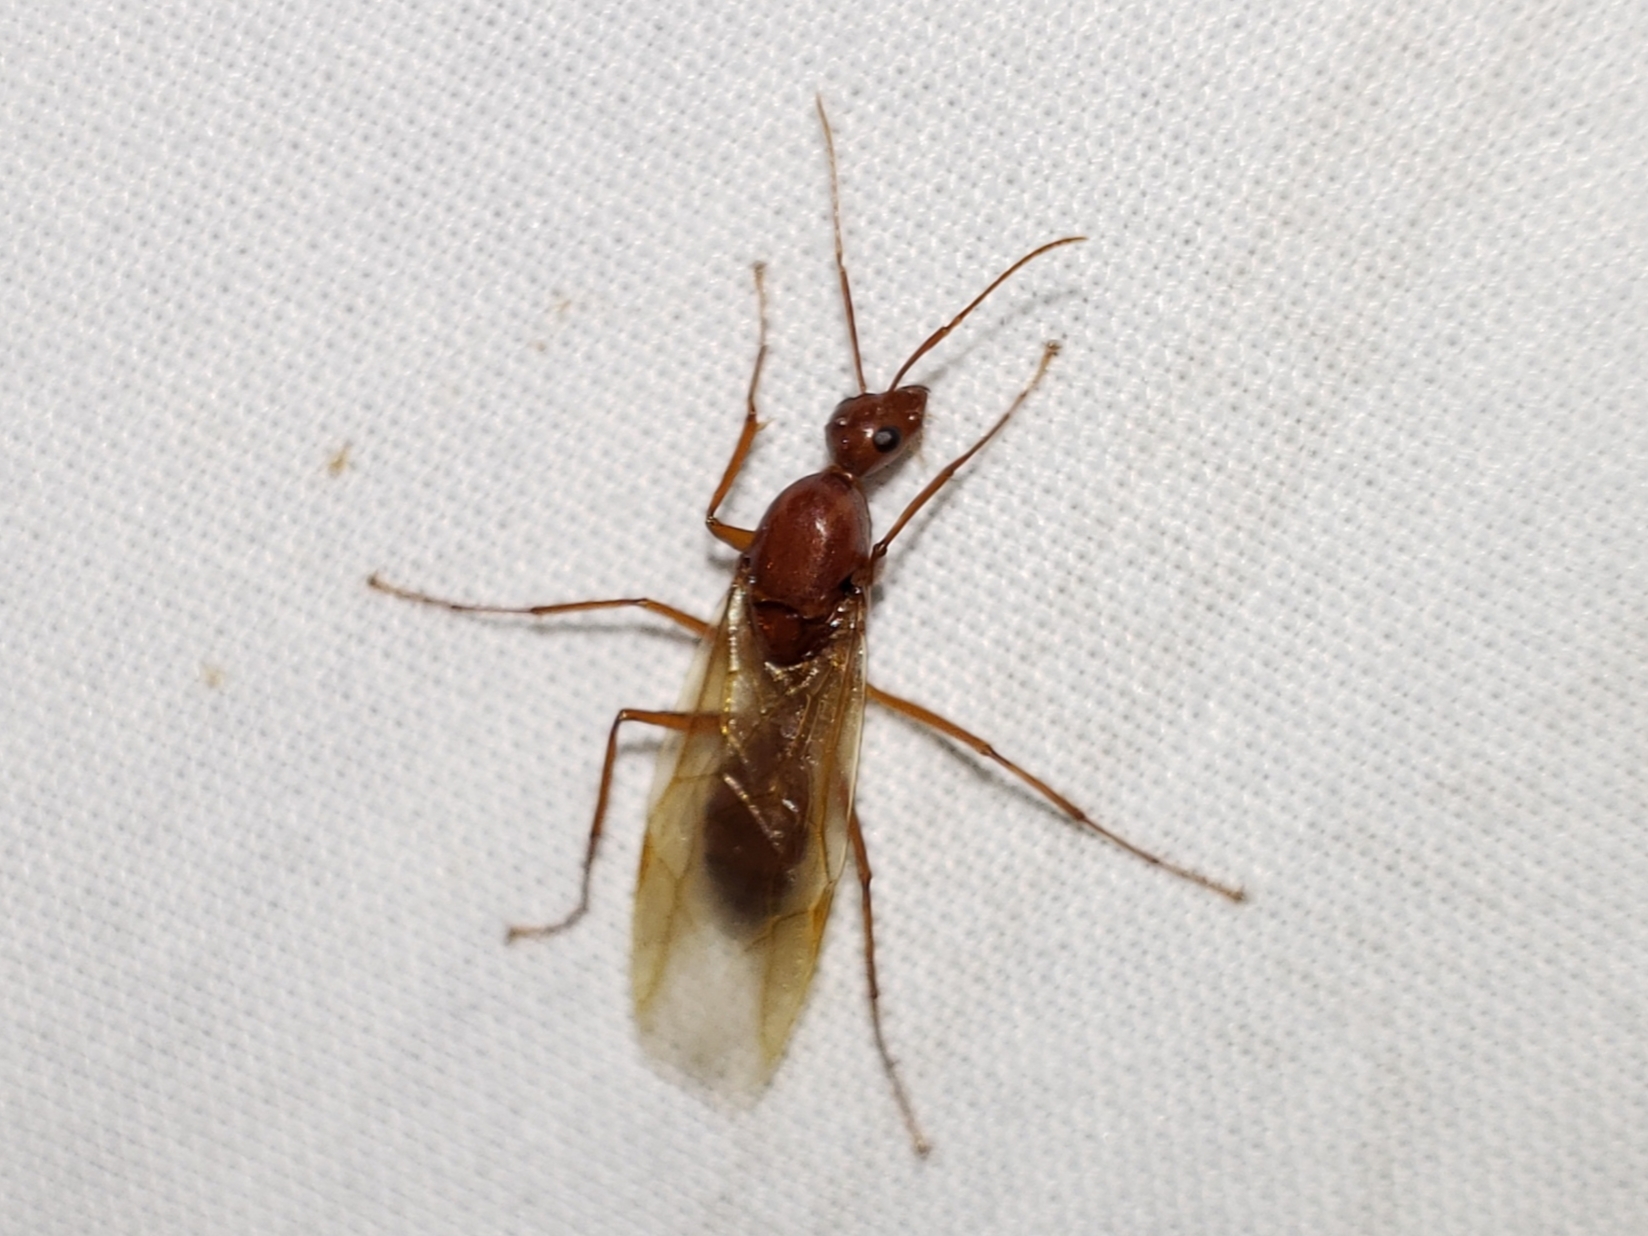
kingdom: Animalia
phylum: Arthropoda
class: Insecta
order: Hymenoptera
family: Formicidae
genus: Camponotus
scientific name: Camponotus castaneus
